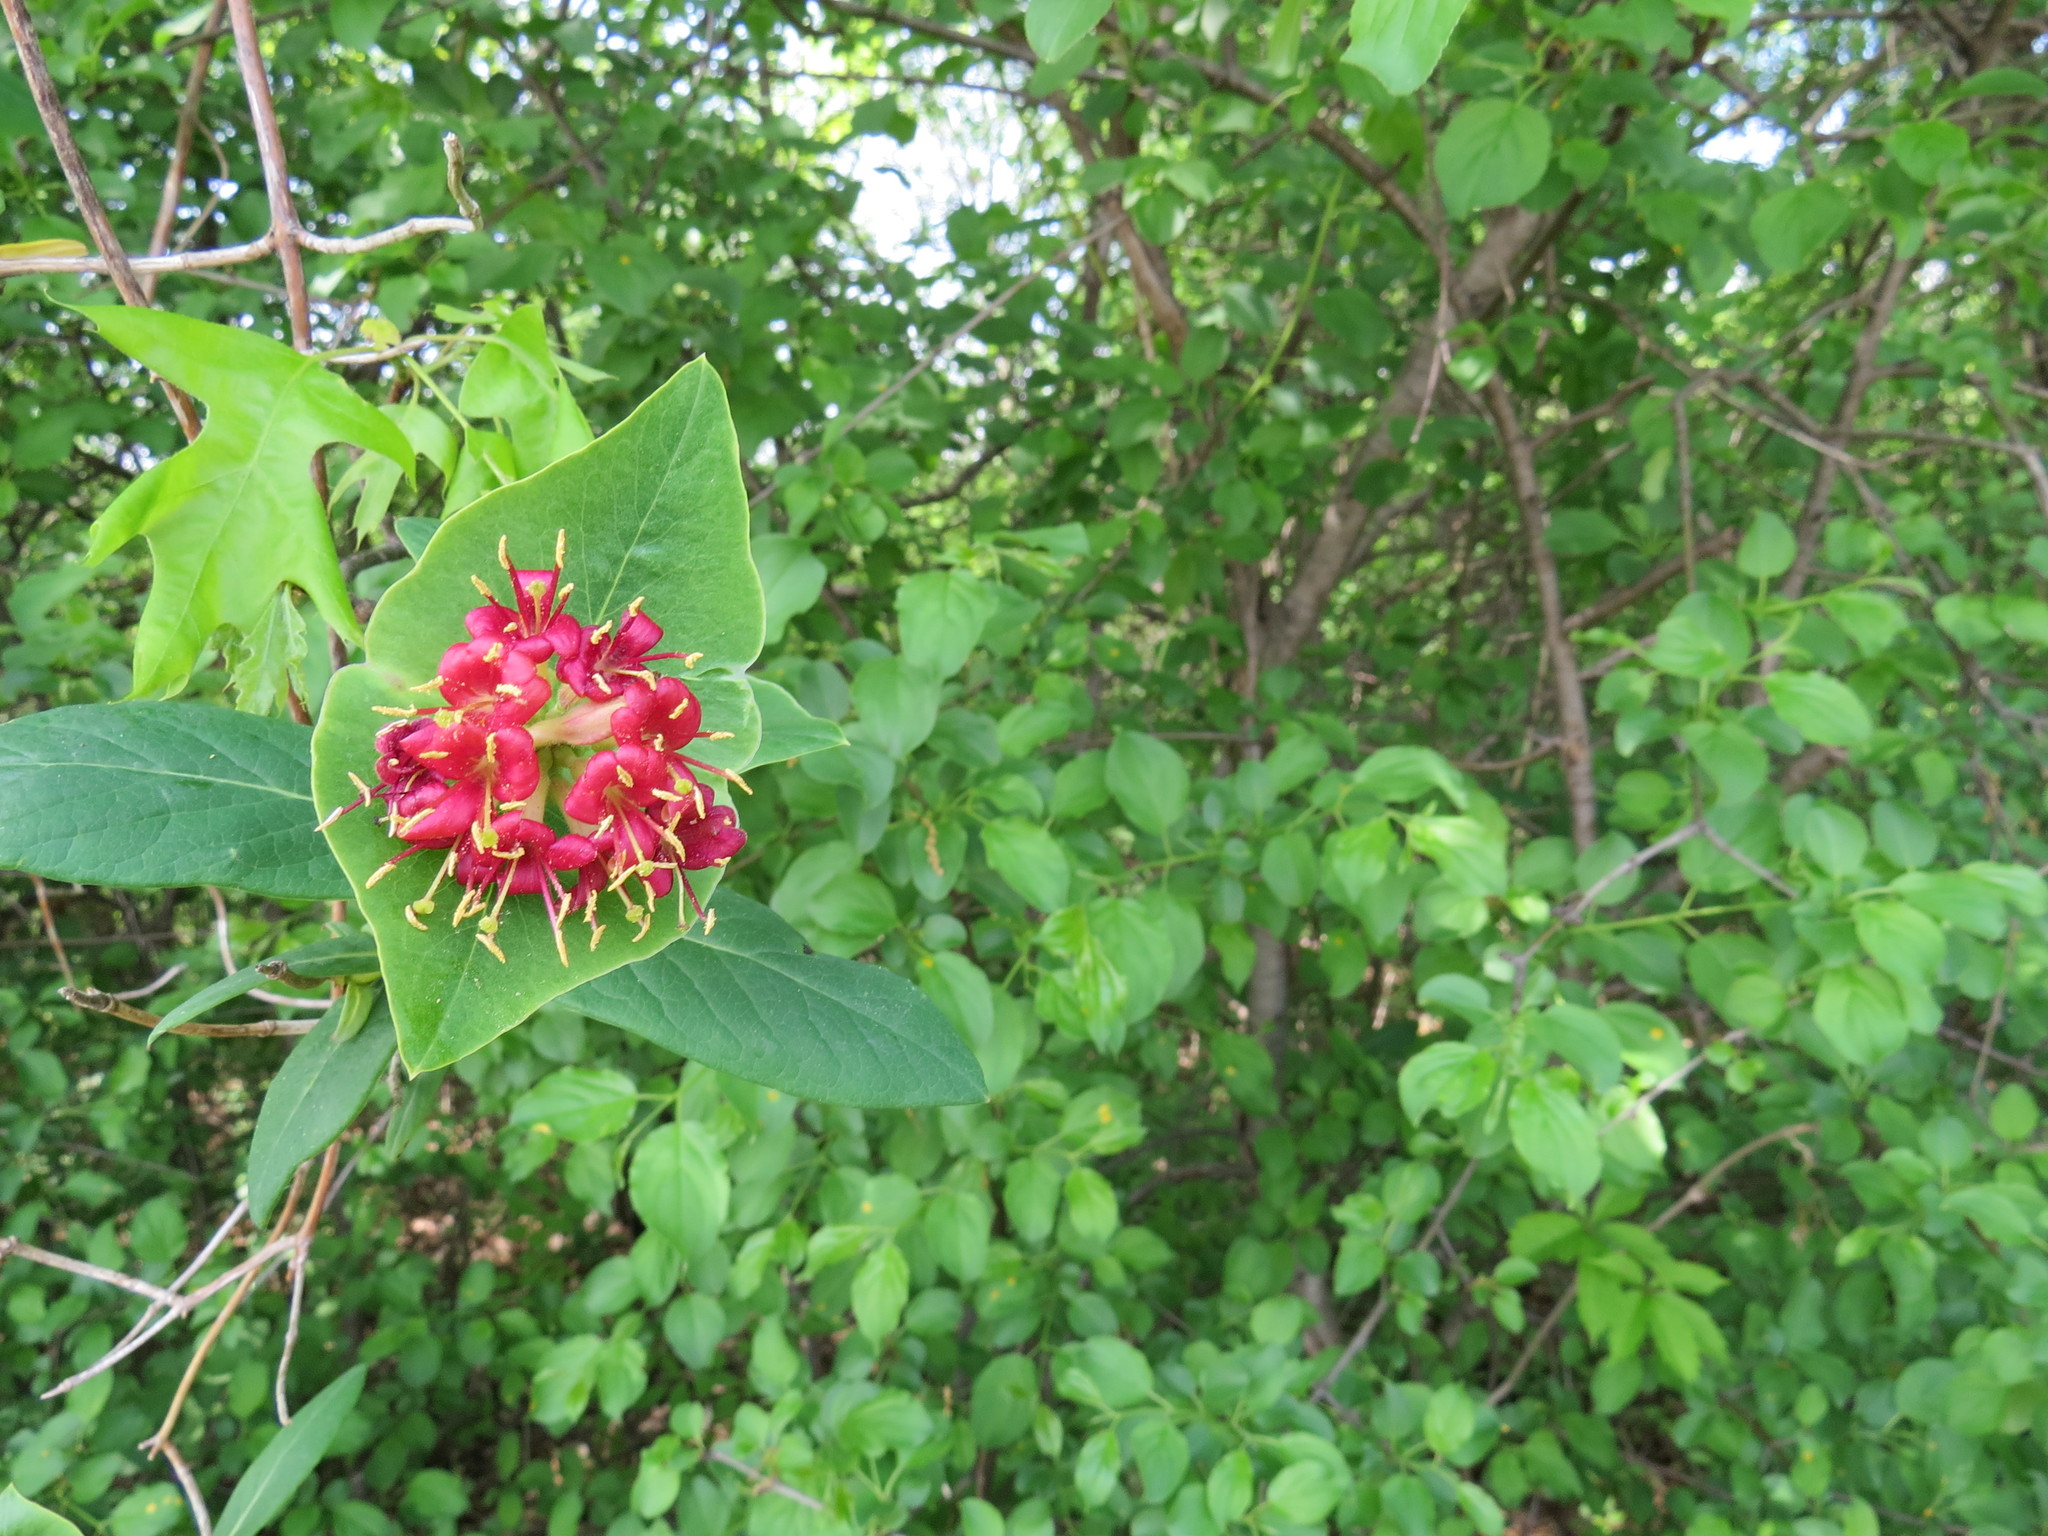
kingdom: Plantae
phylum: Tracheophyta
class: Magnoliopsida
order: Dipsacales
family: Caprifoliaceae
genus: Lonicera
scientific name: Lonicera dioica
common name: Limber honeysuckle
